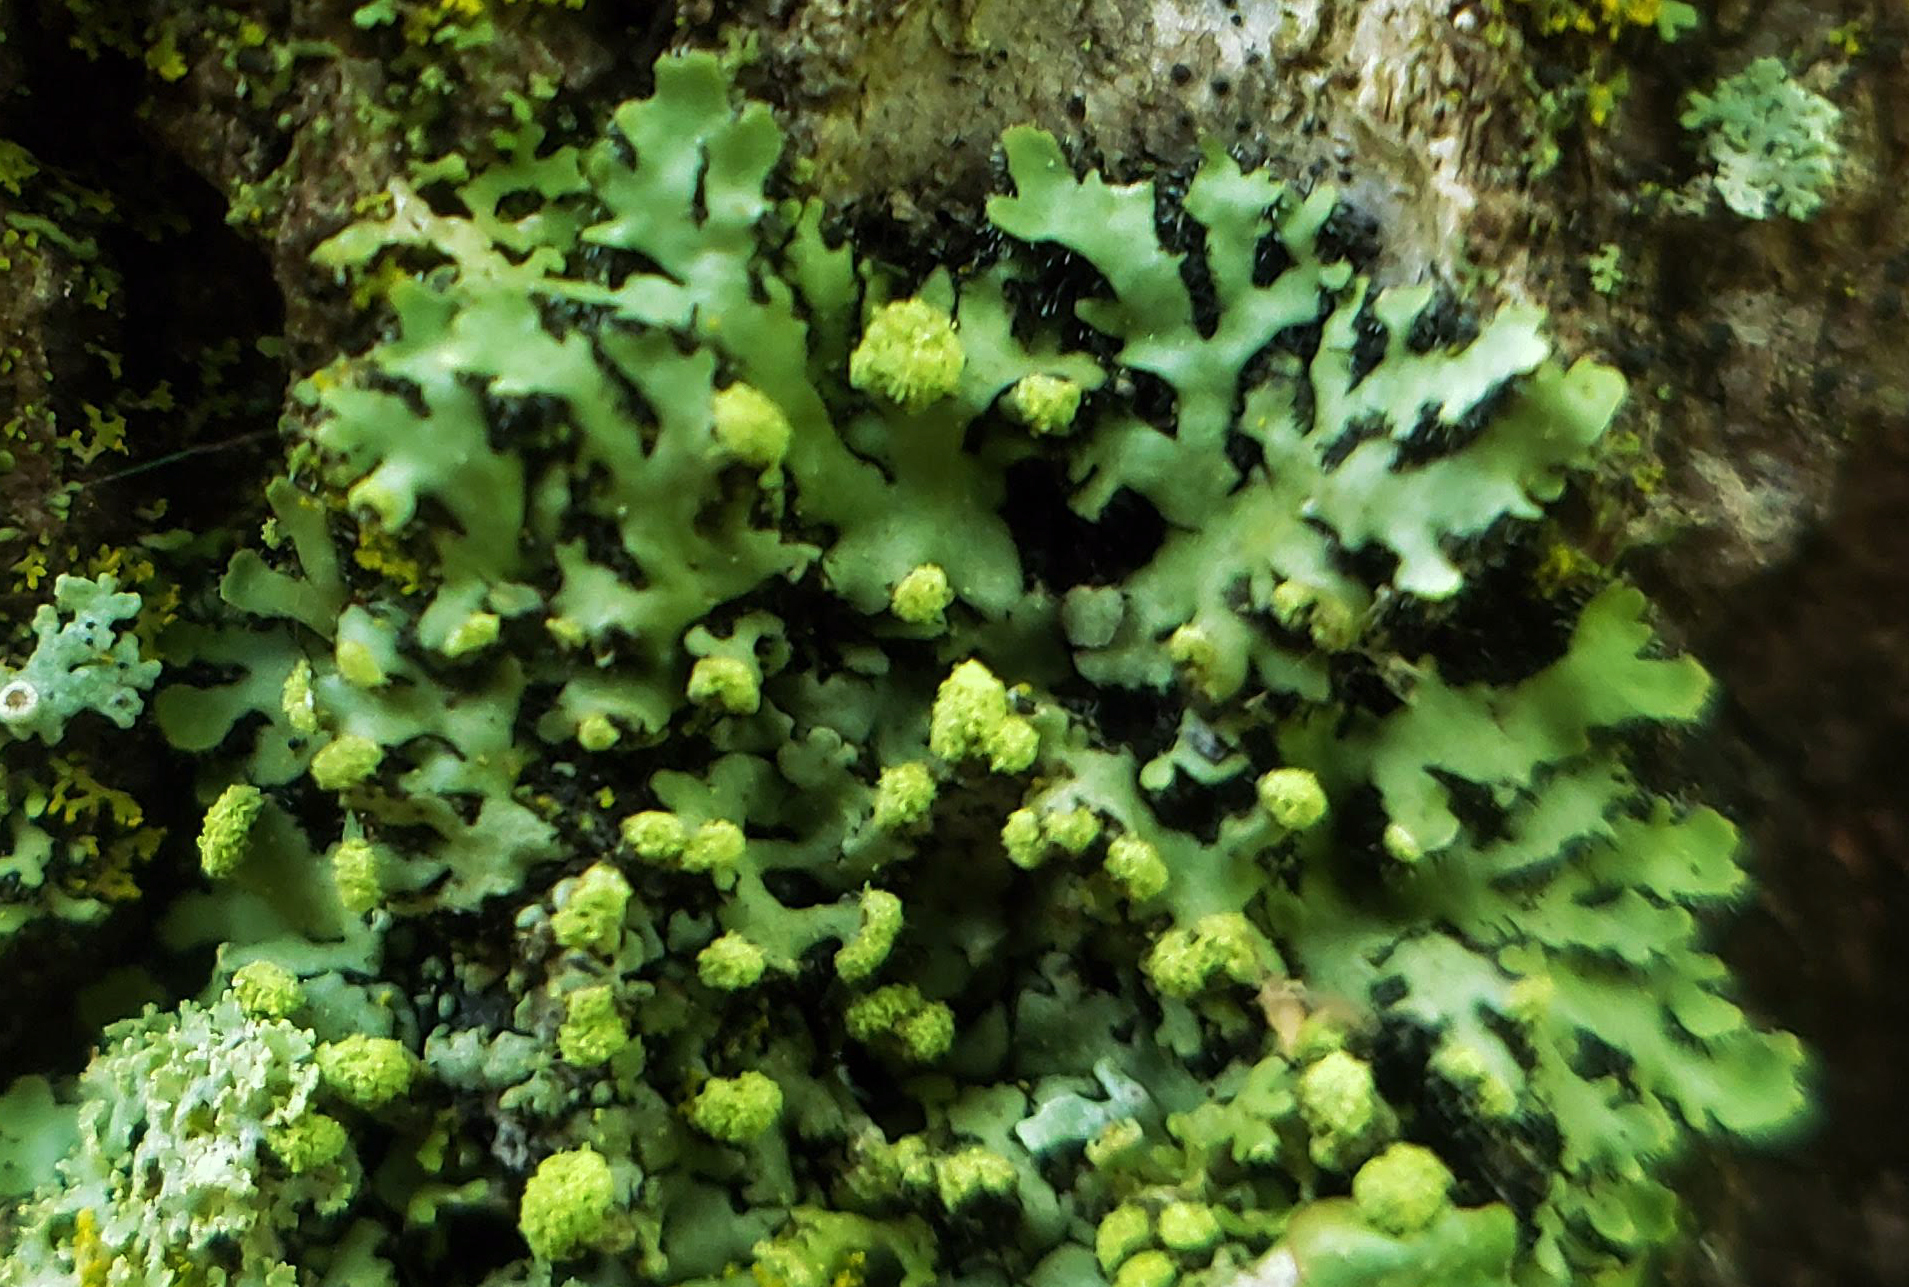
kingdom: Fungi
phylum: Ascomycota
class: Lecanoromycetes
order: Caliciales
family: Physciaceae
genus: Phaeophyscia
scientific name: Phaeophyscia pusilloides
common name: Pom-pom shadow lichen
